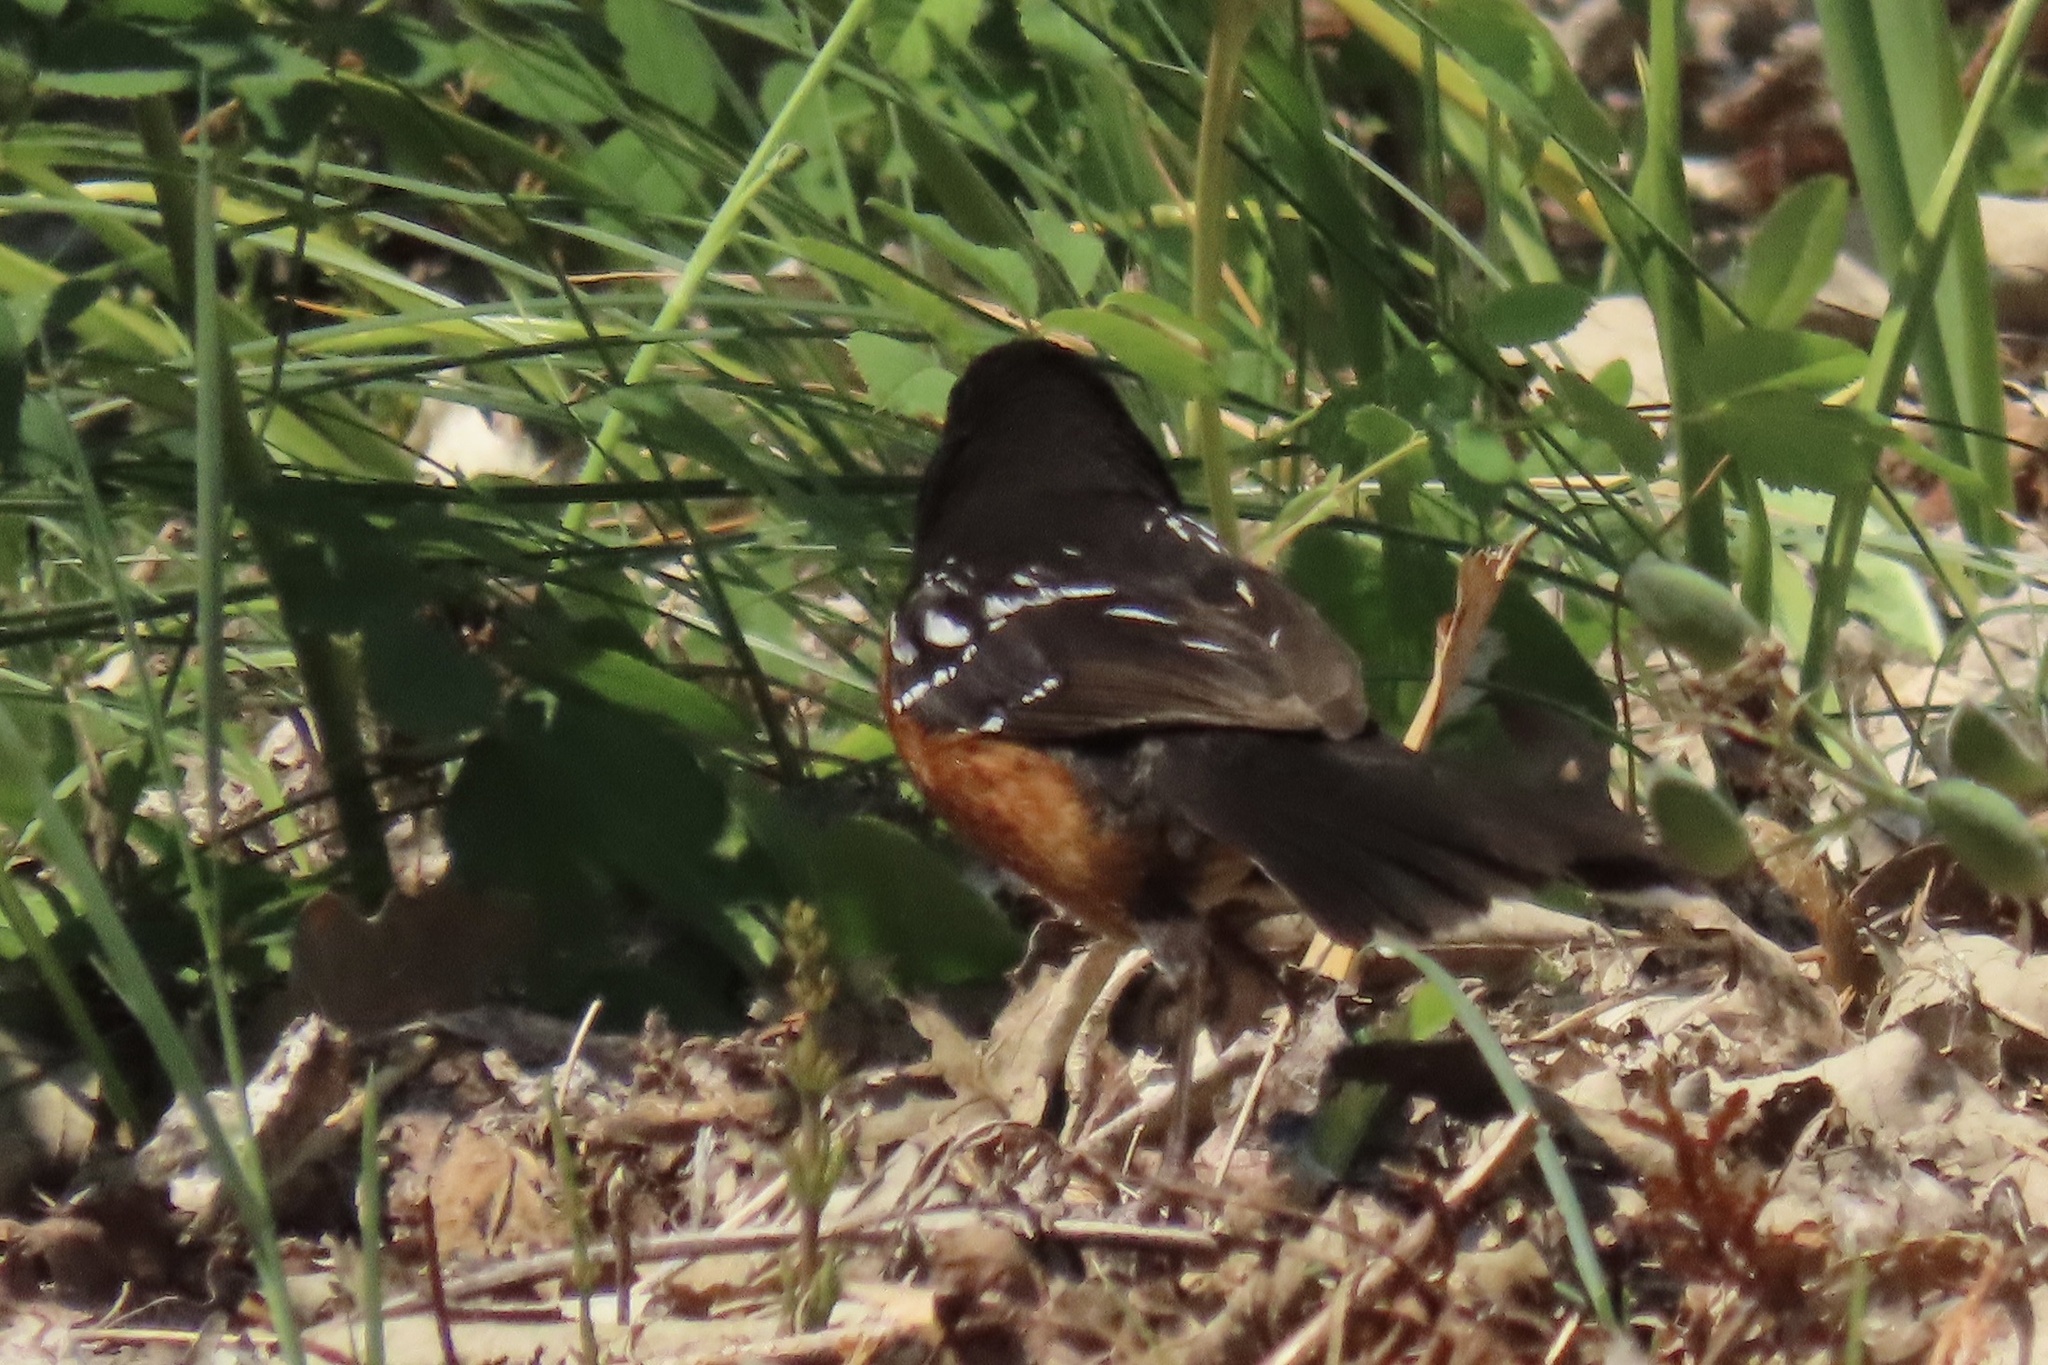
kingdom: Animalia
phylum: Chordata
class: Aves
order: Passeriformes
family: Passerellidae
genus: Pipilo
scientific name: Pipilo maculatus
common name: Spotted towhee
